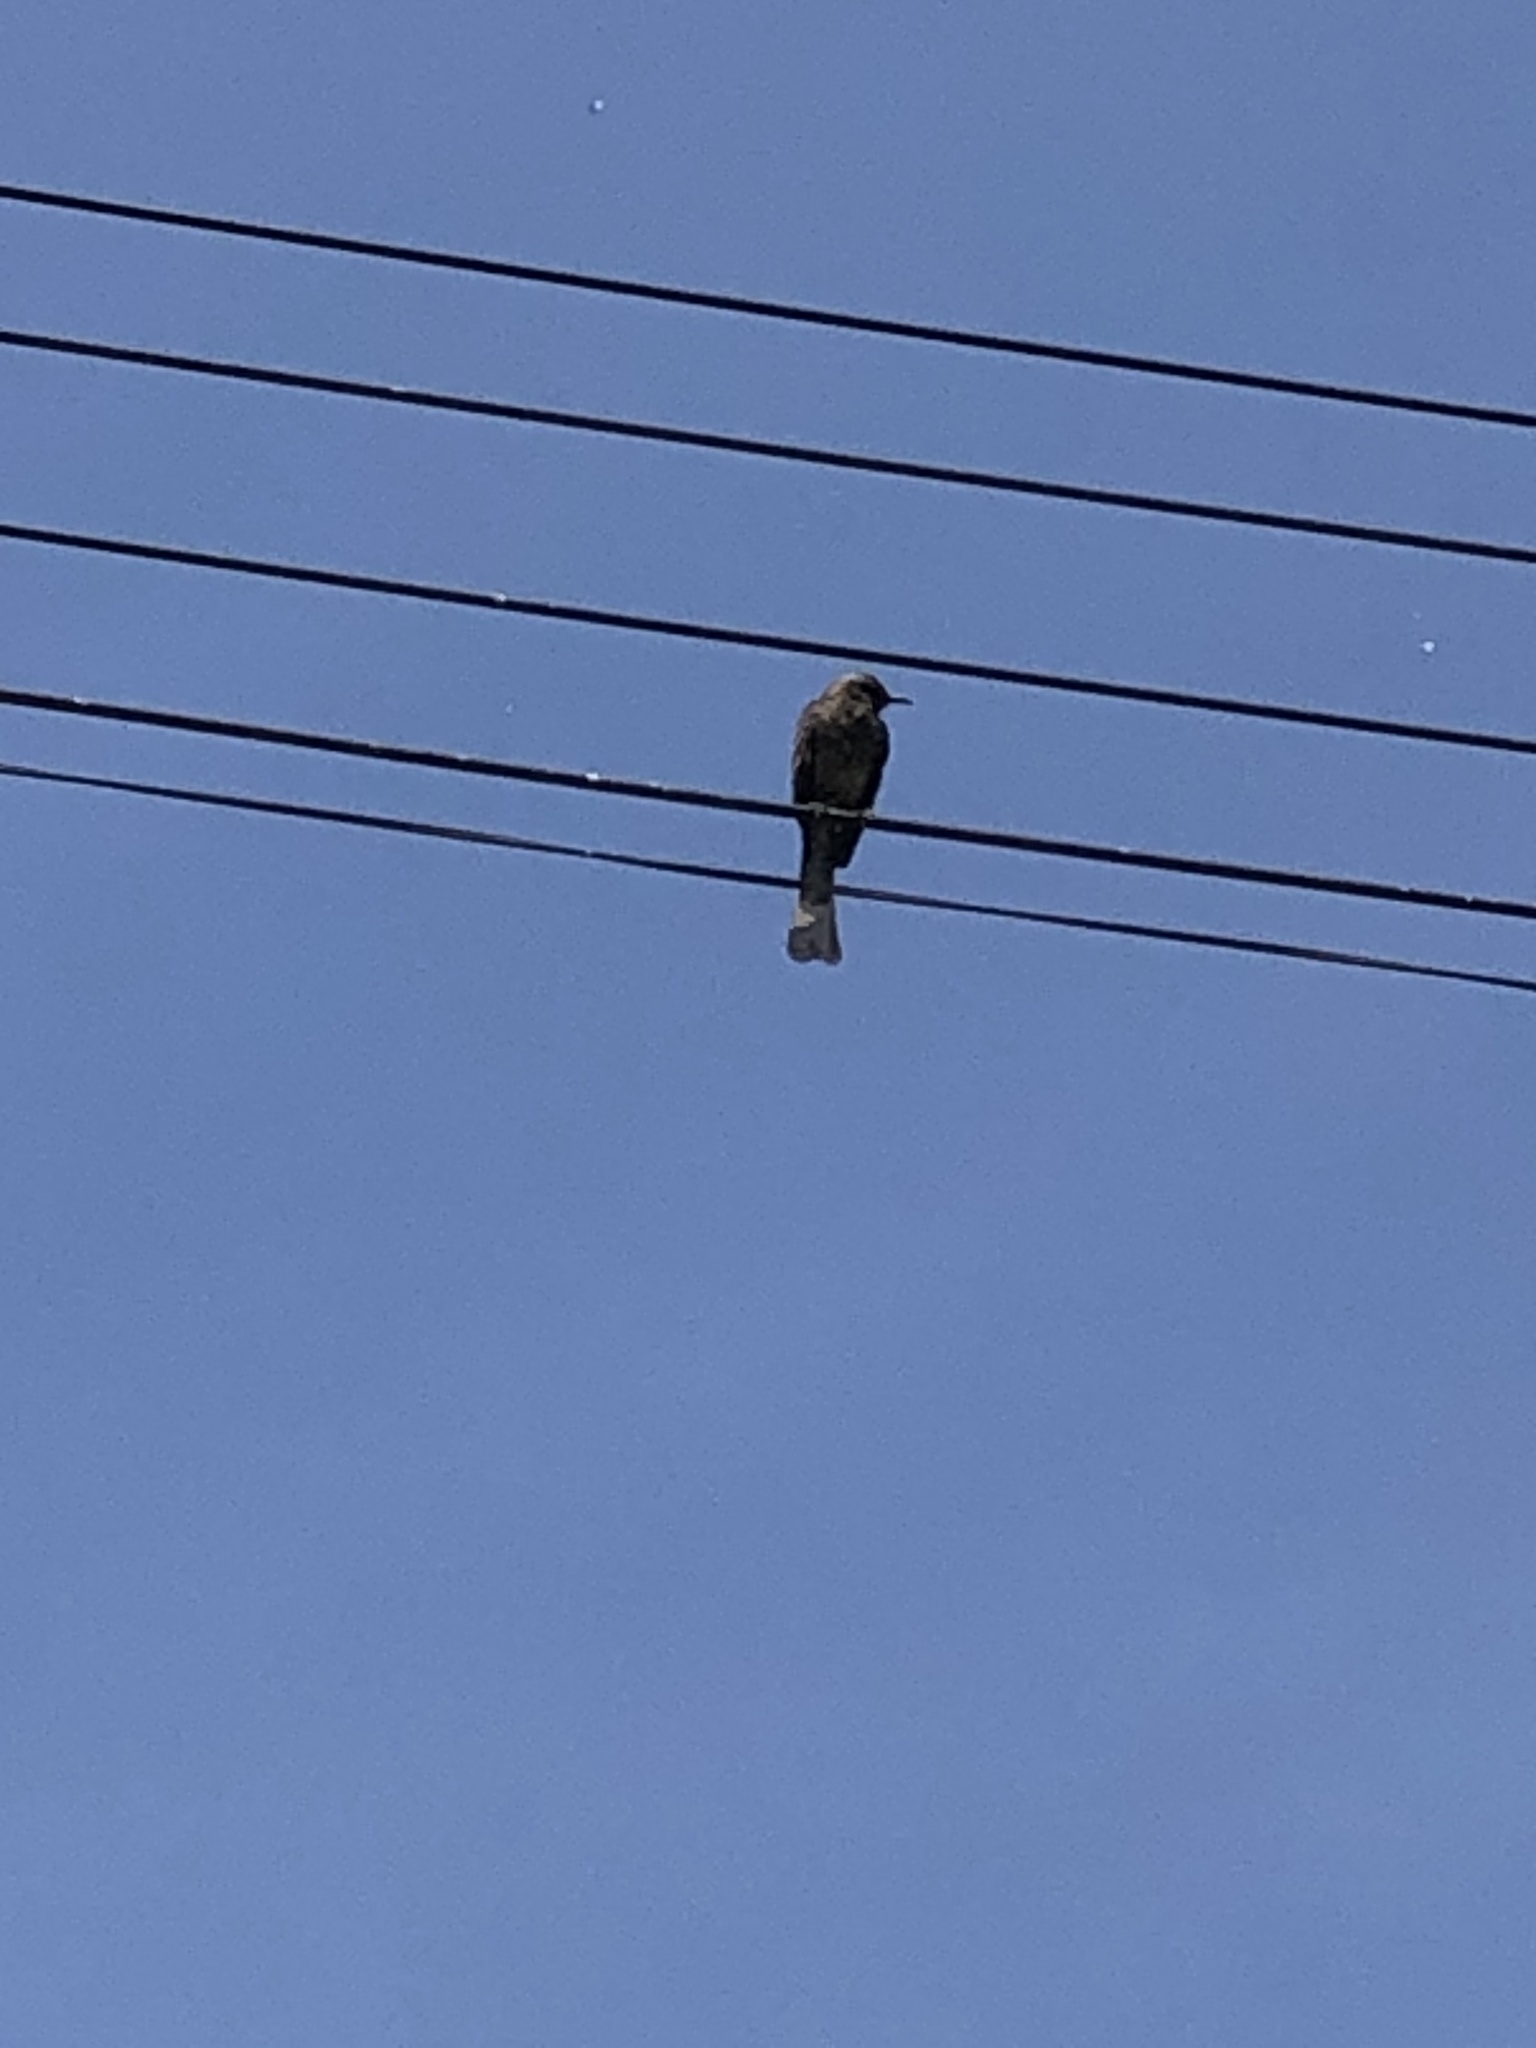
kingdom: Animalia
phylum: Chordata
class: Aves
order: Passeriformes
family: Mimidae
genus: Mimus
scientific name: Mimus longicaudatus
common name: Long-tailed mockingbird
